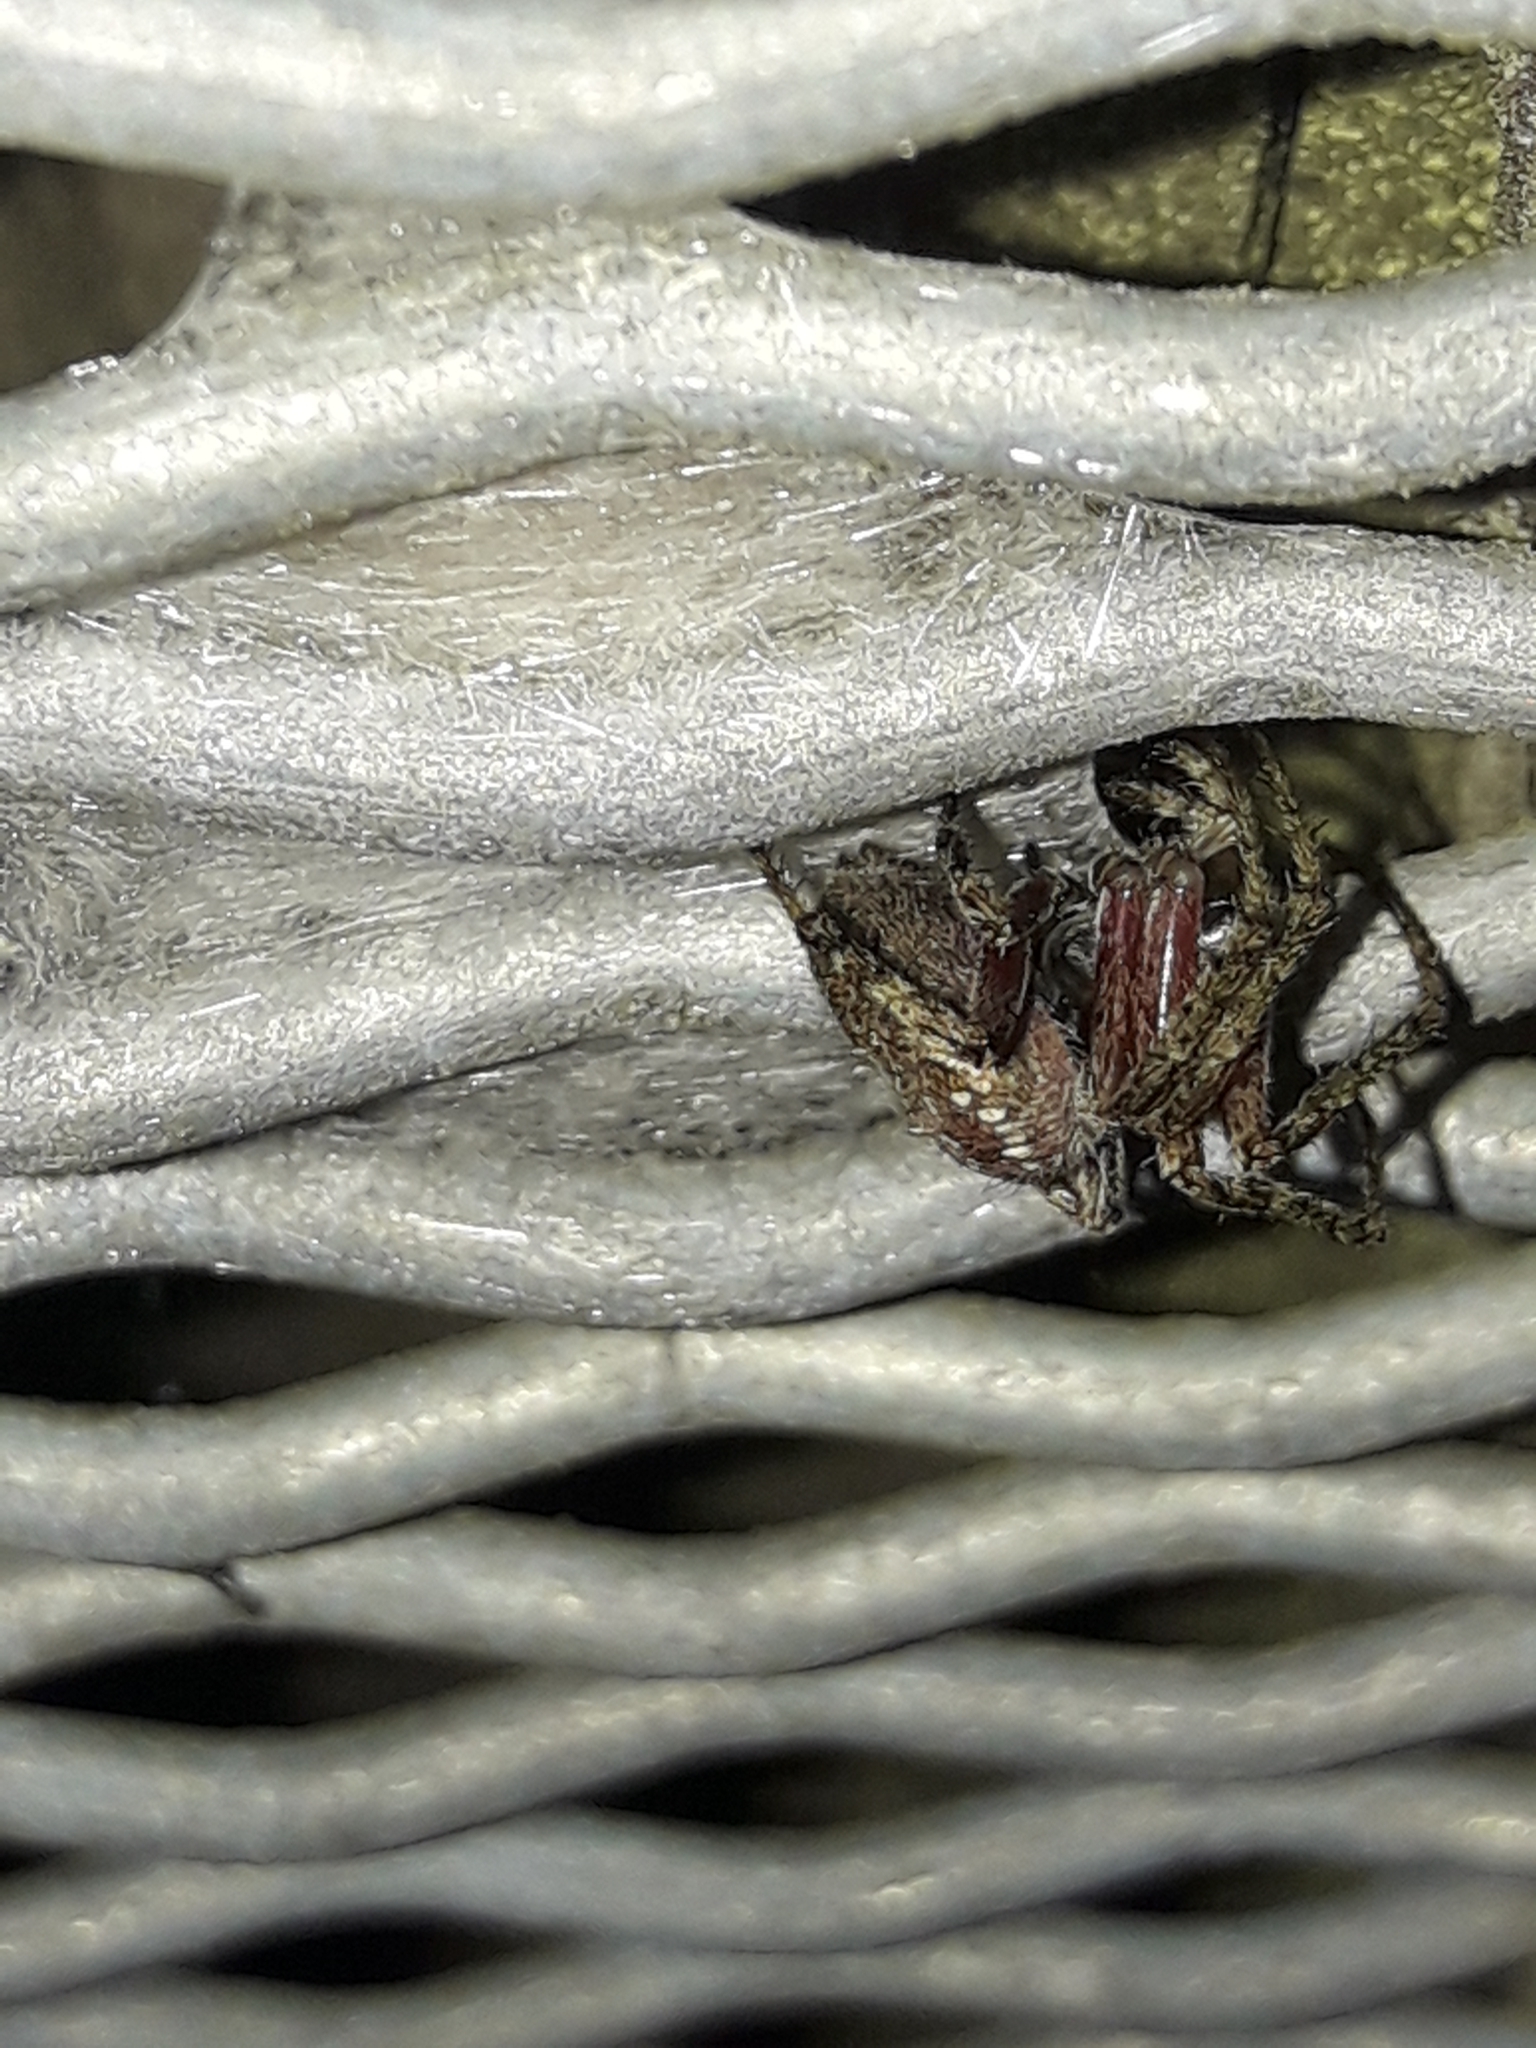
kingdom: Animalia
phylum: Arthropoda
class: Arachnida
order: Araneae
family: Araneidae
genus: Zealaranea
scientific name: Zealaranea crassa
